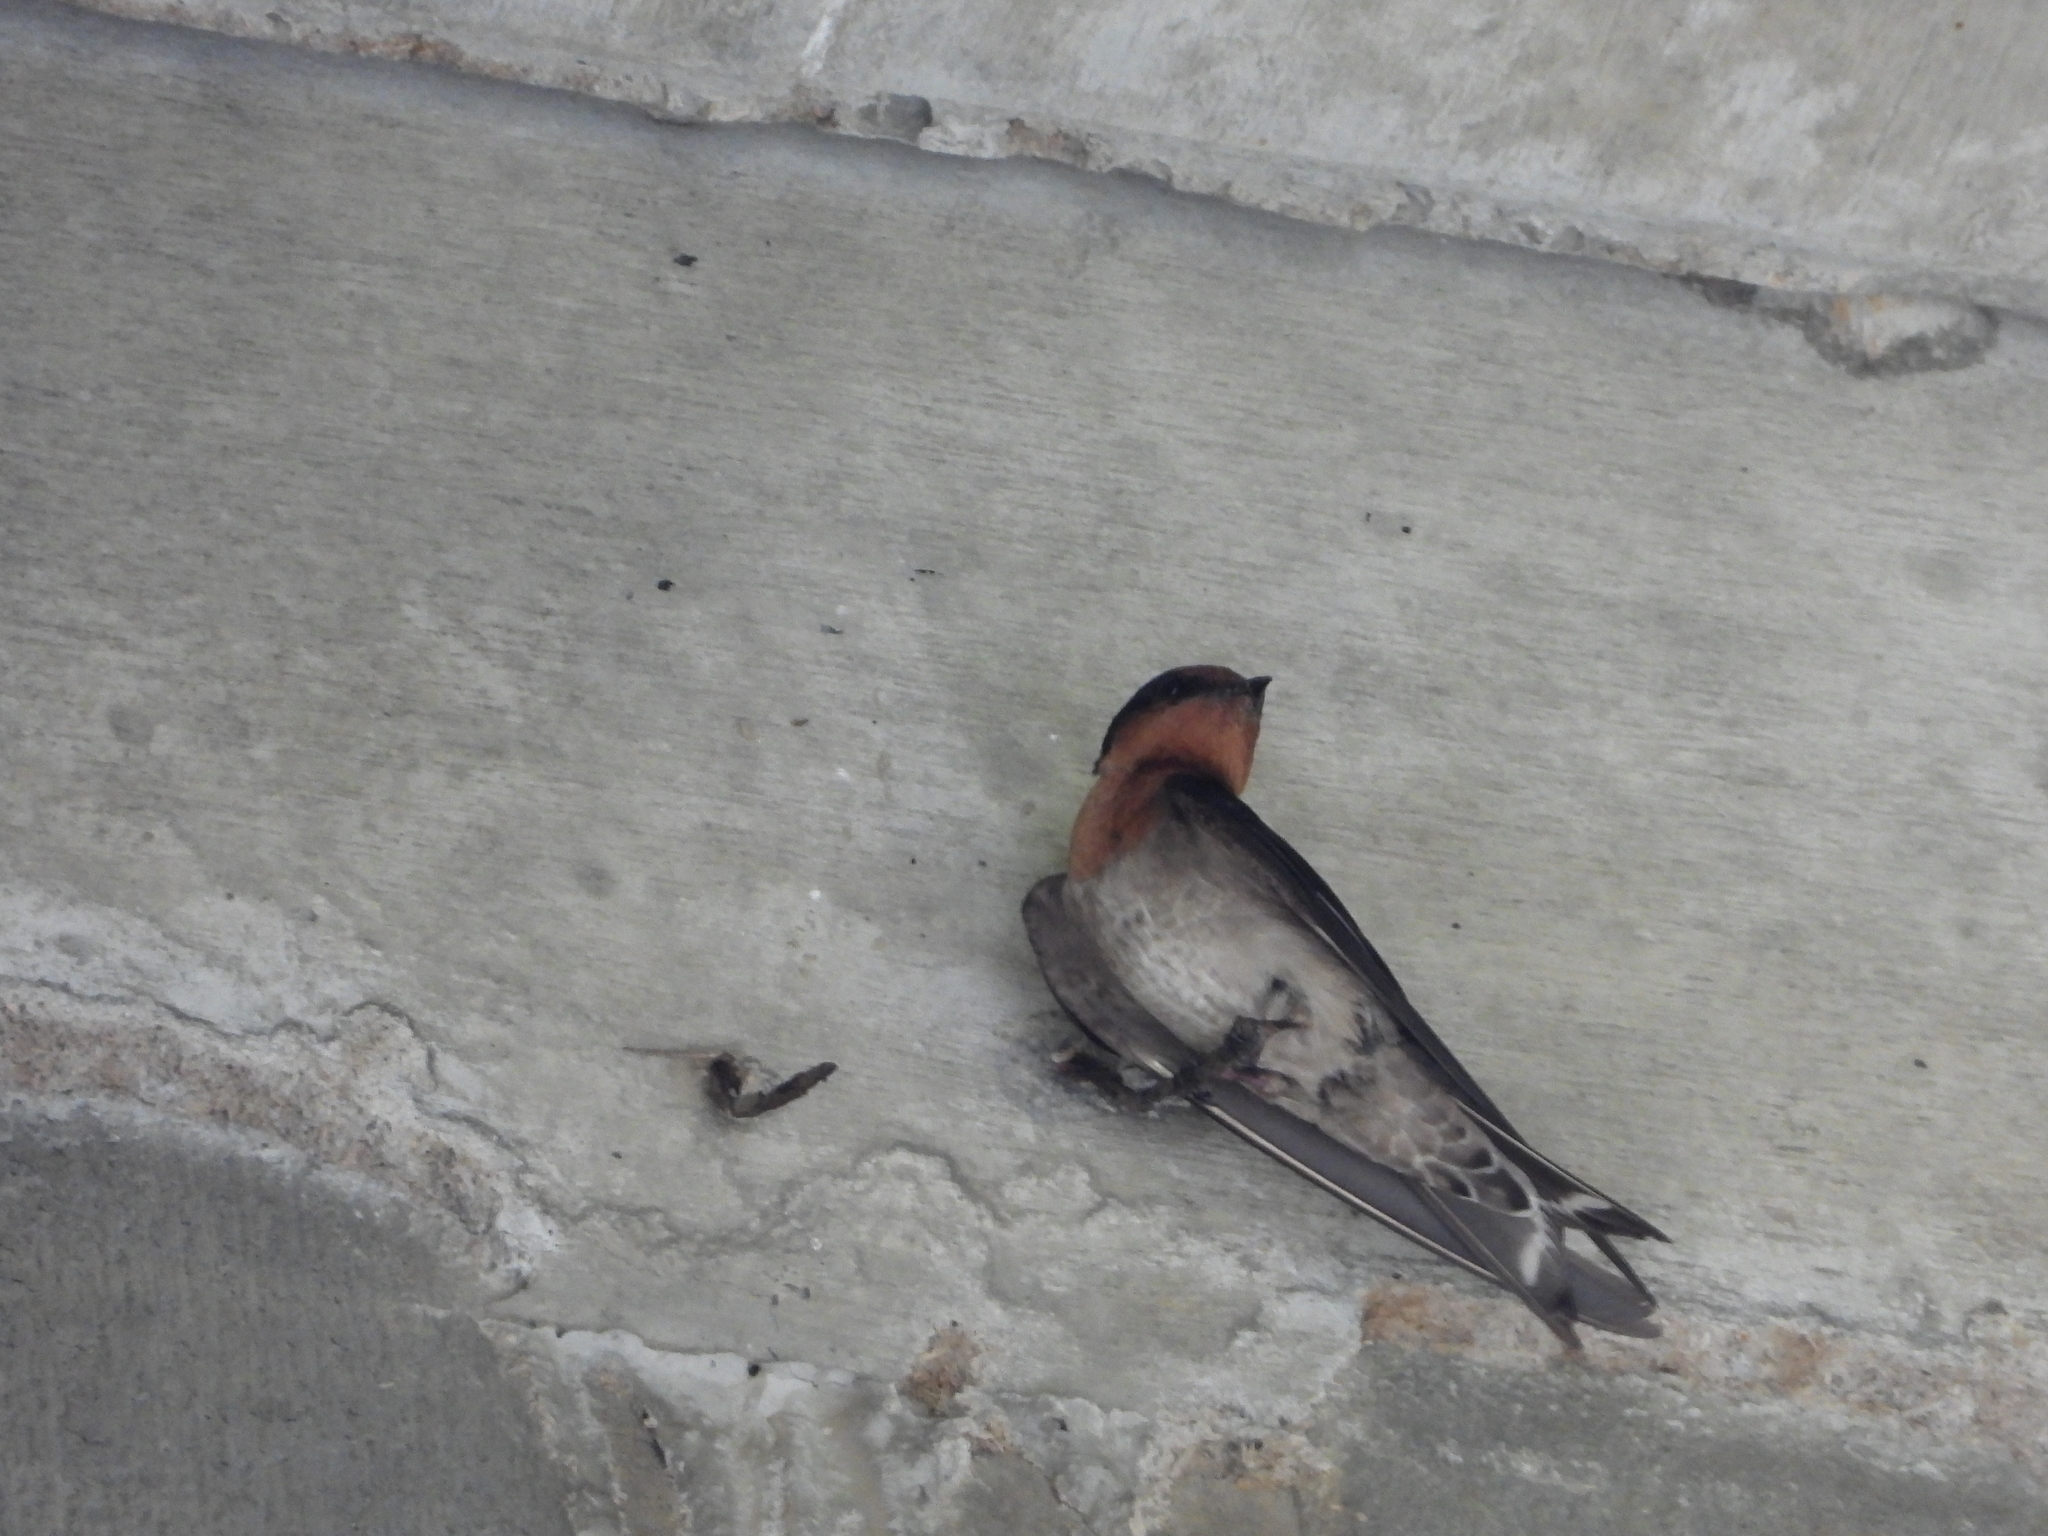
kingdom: Animalia
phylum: Chordata
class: Aves
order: Passeriformes
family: Hirundinidae
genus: Hirundo
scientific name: Hirundo tahitica
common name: Pacific swallow
